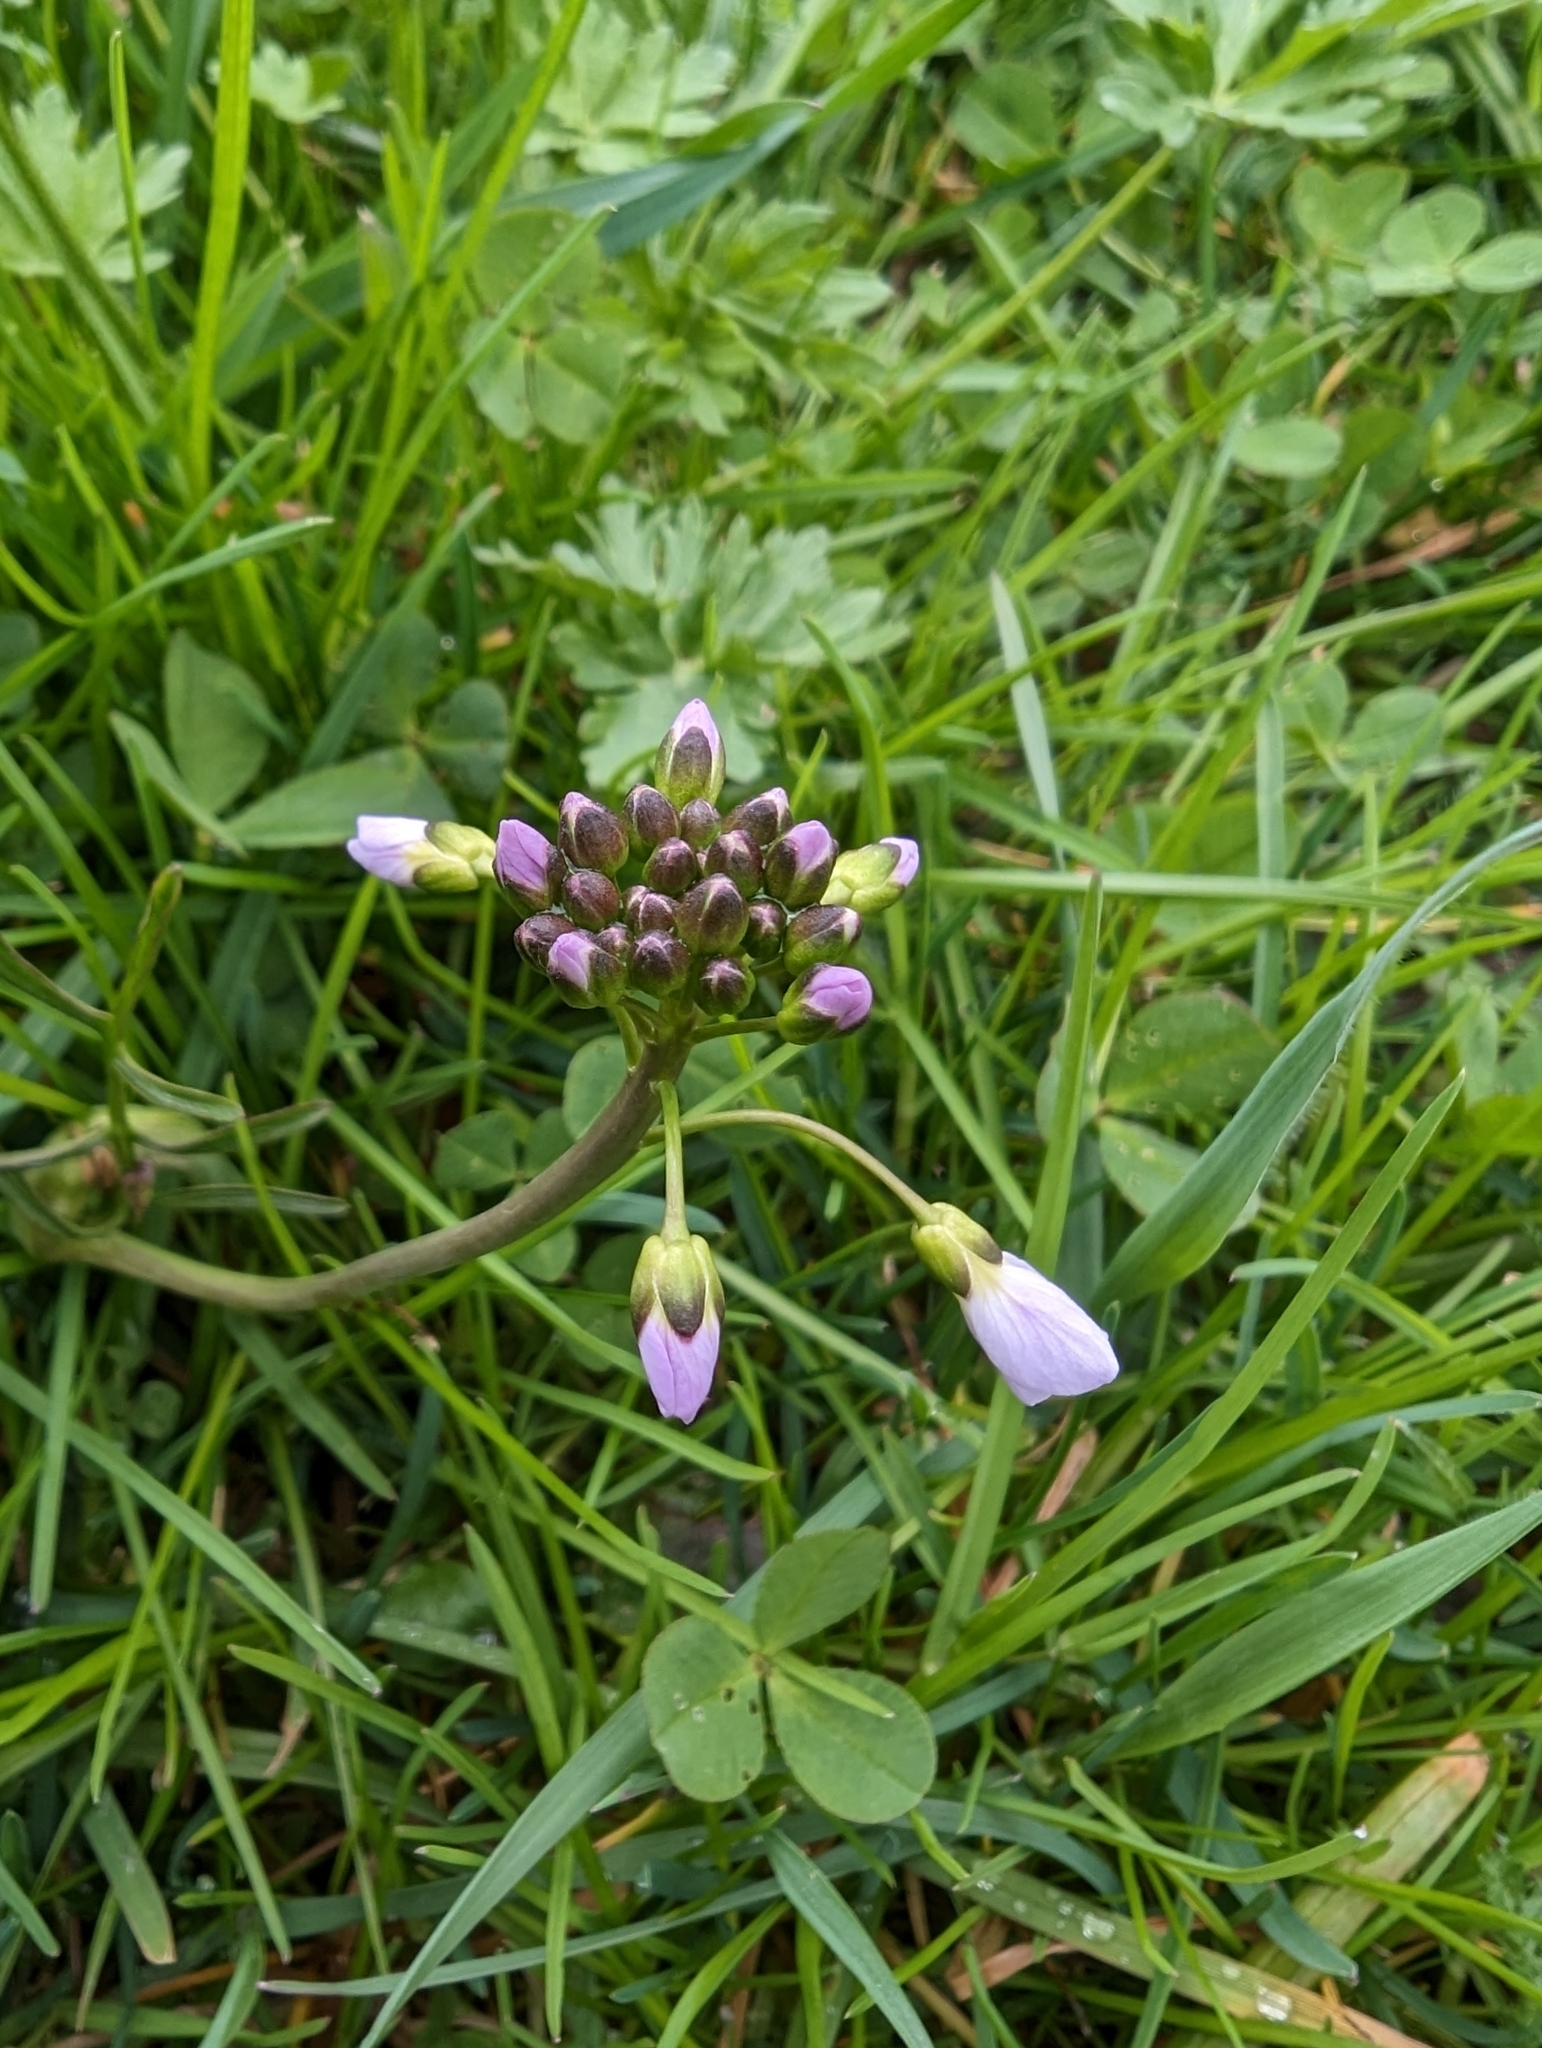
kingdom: Plantae
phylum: Tracheophyta
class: Magnoliopsida
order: Brassicales
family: Brassicaceae
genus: Cardamine
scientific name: Cardamine pratensis
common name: Cuckoo flower
